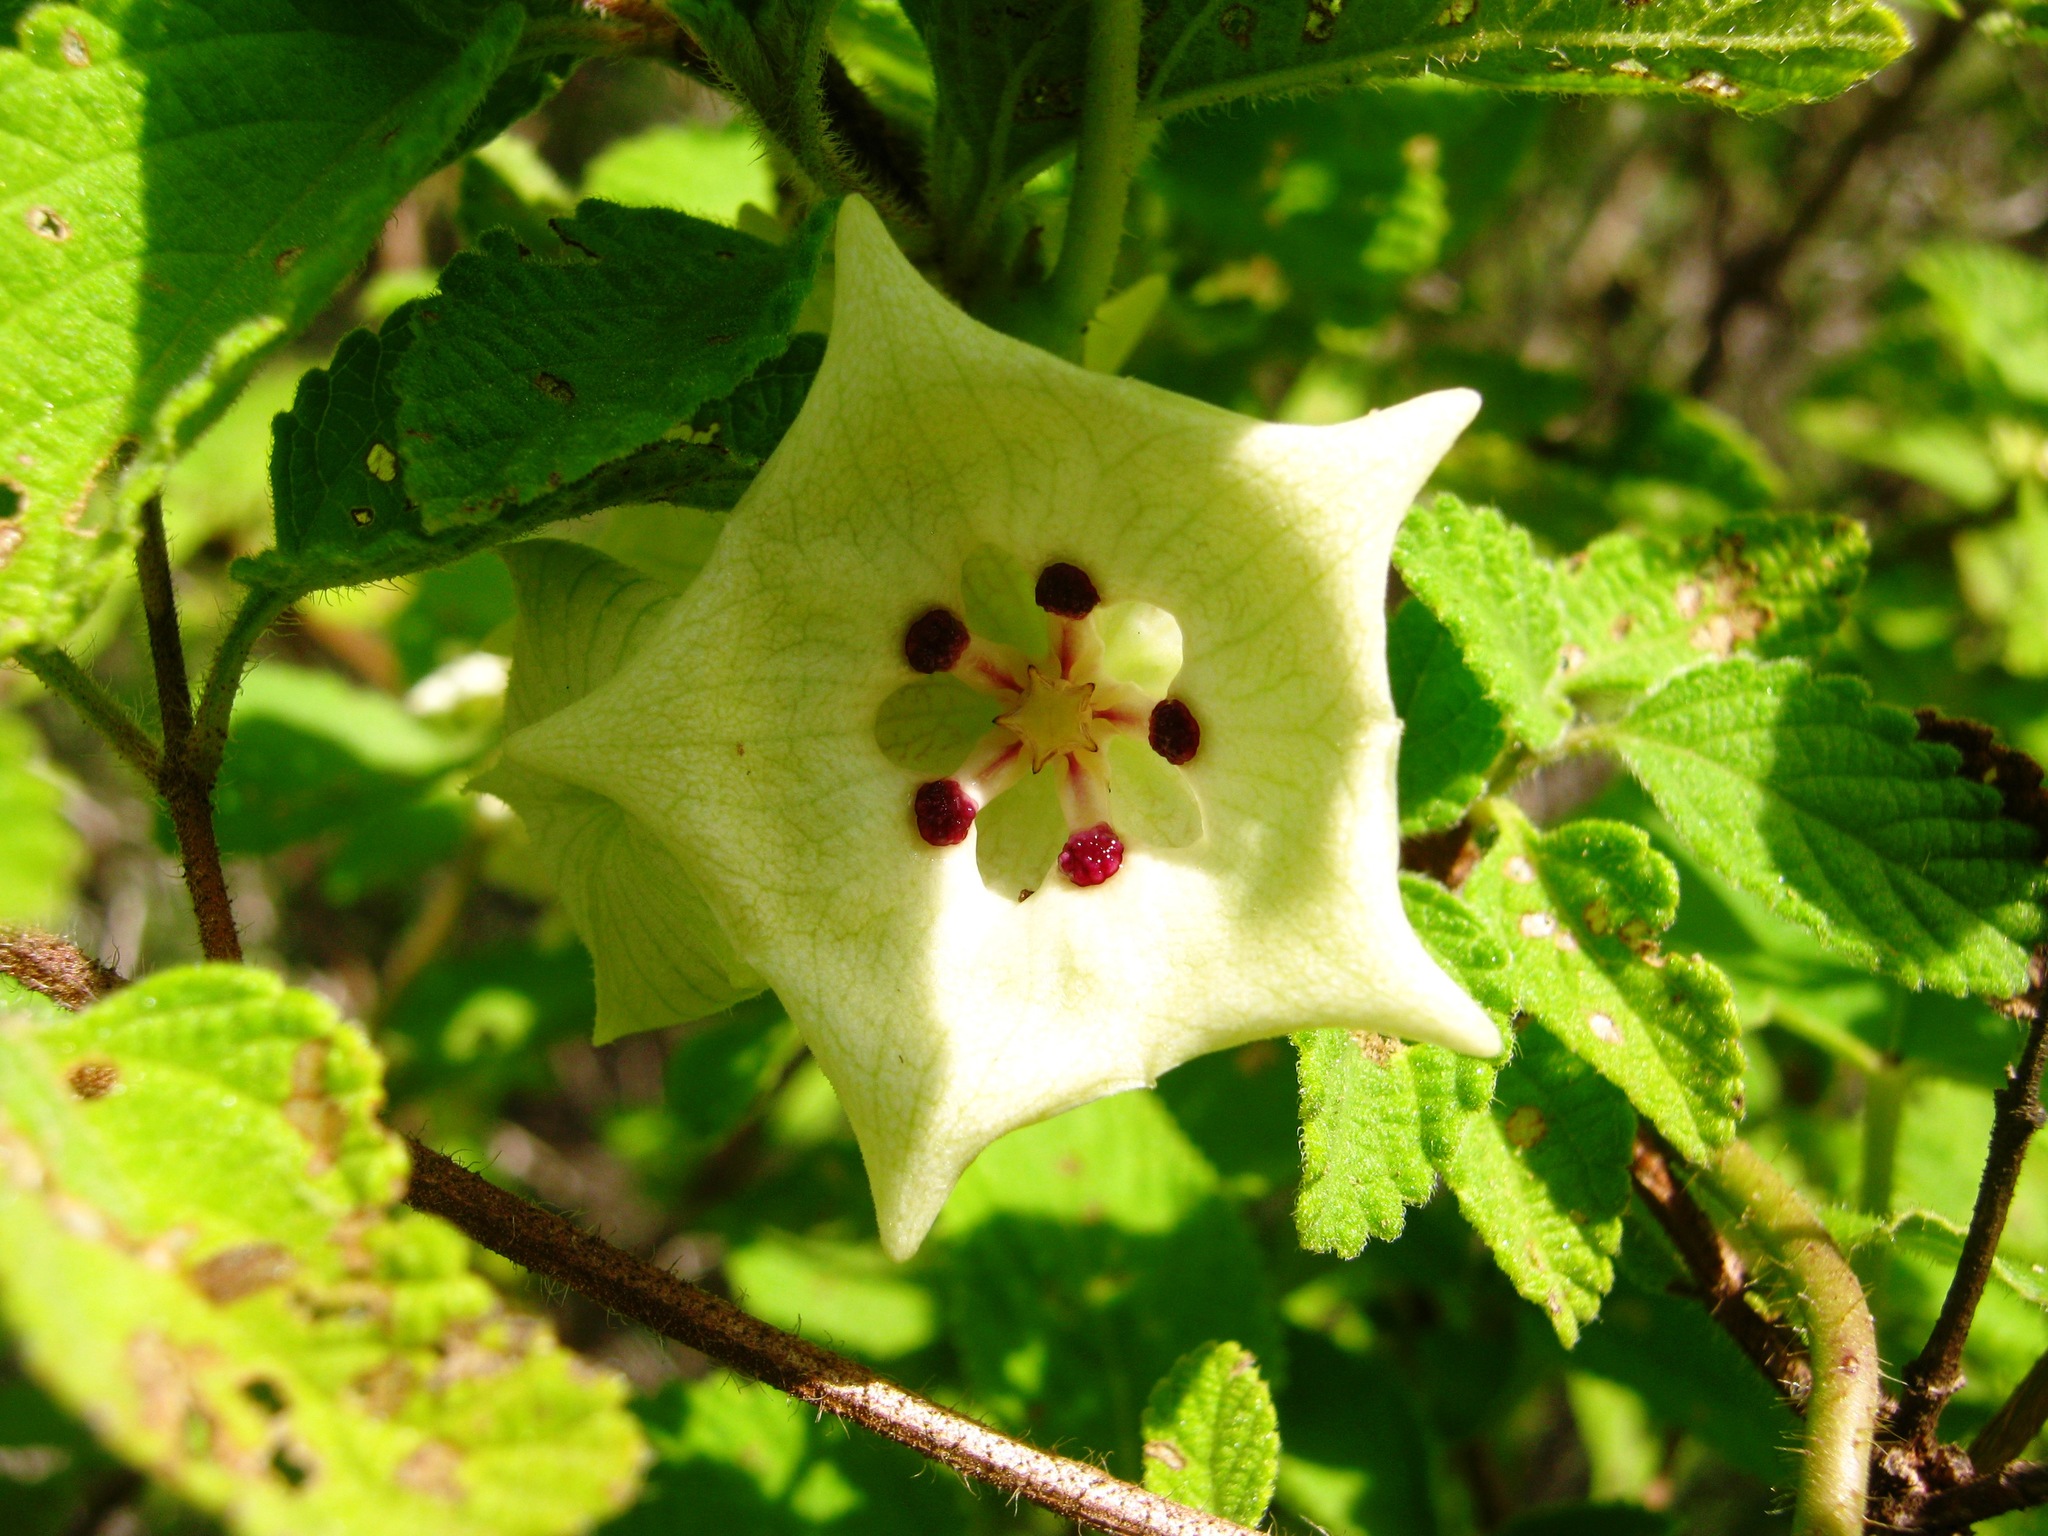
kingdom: Plantae
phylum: Tracheophyta
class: Magnoliopsida
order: Gentianales
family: Apocynaceae
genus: Dictyanthus
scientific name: Dictyanthus aeneus
